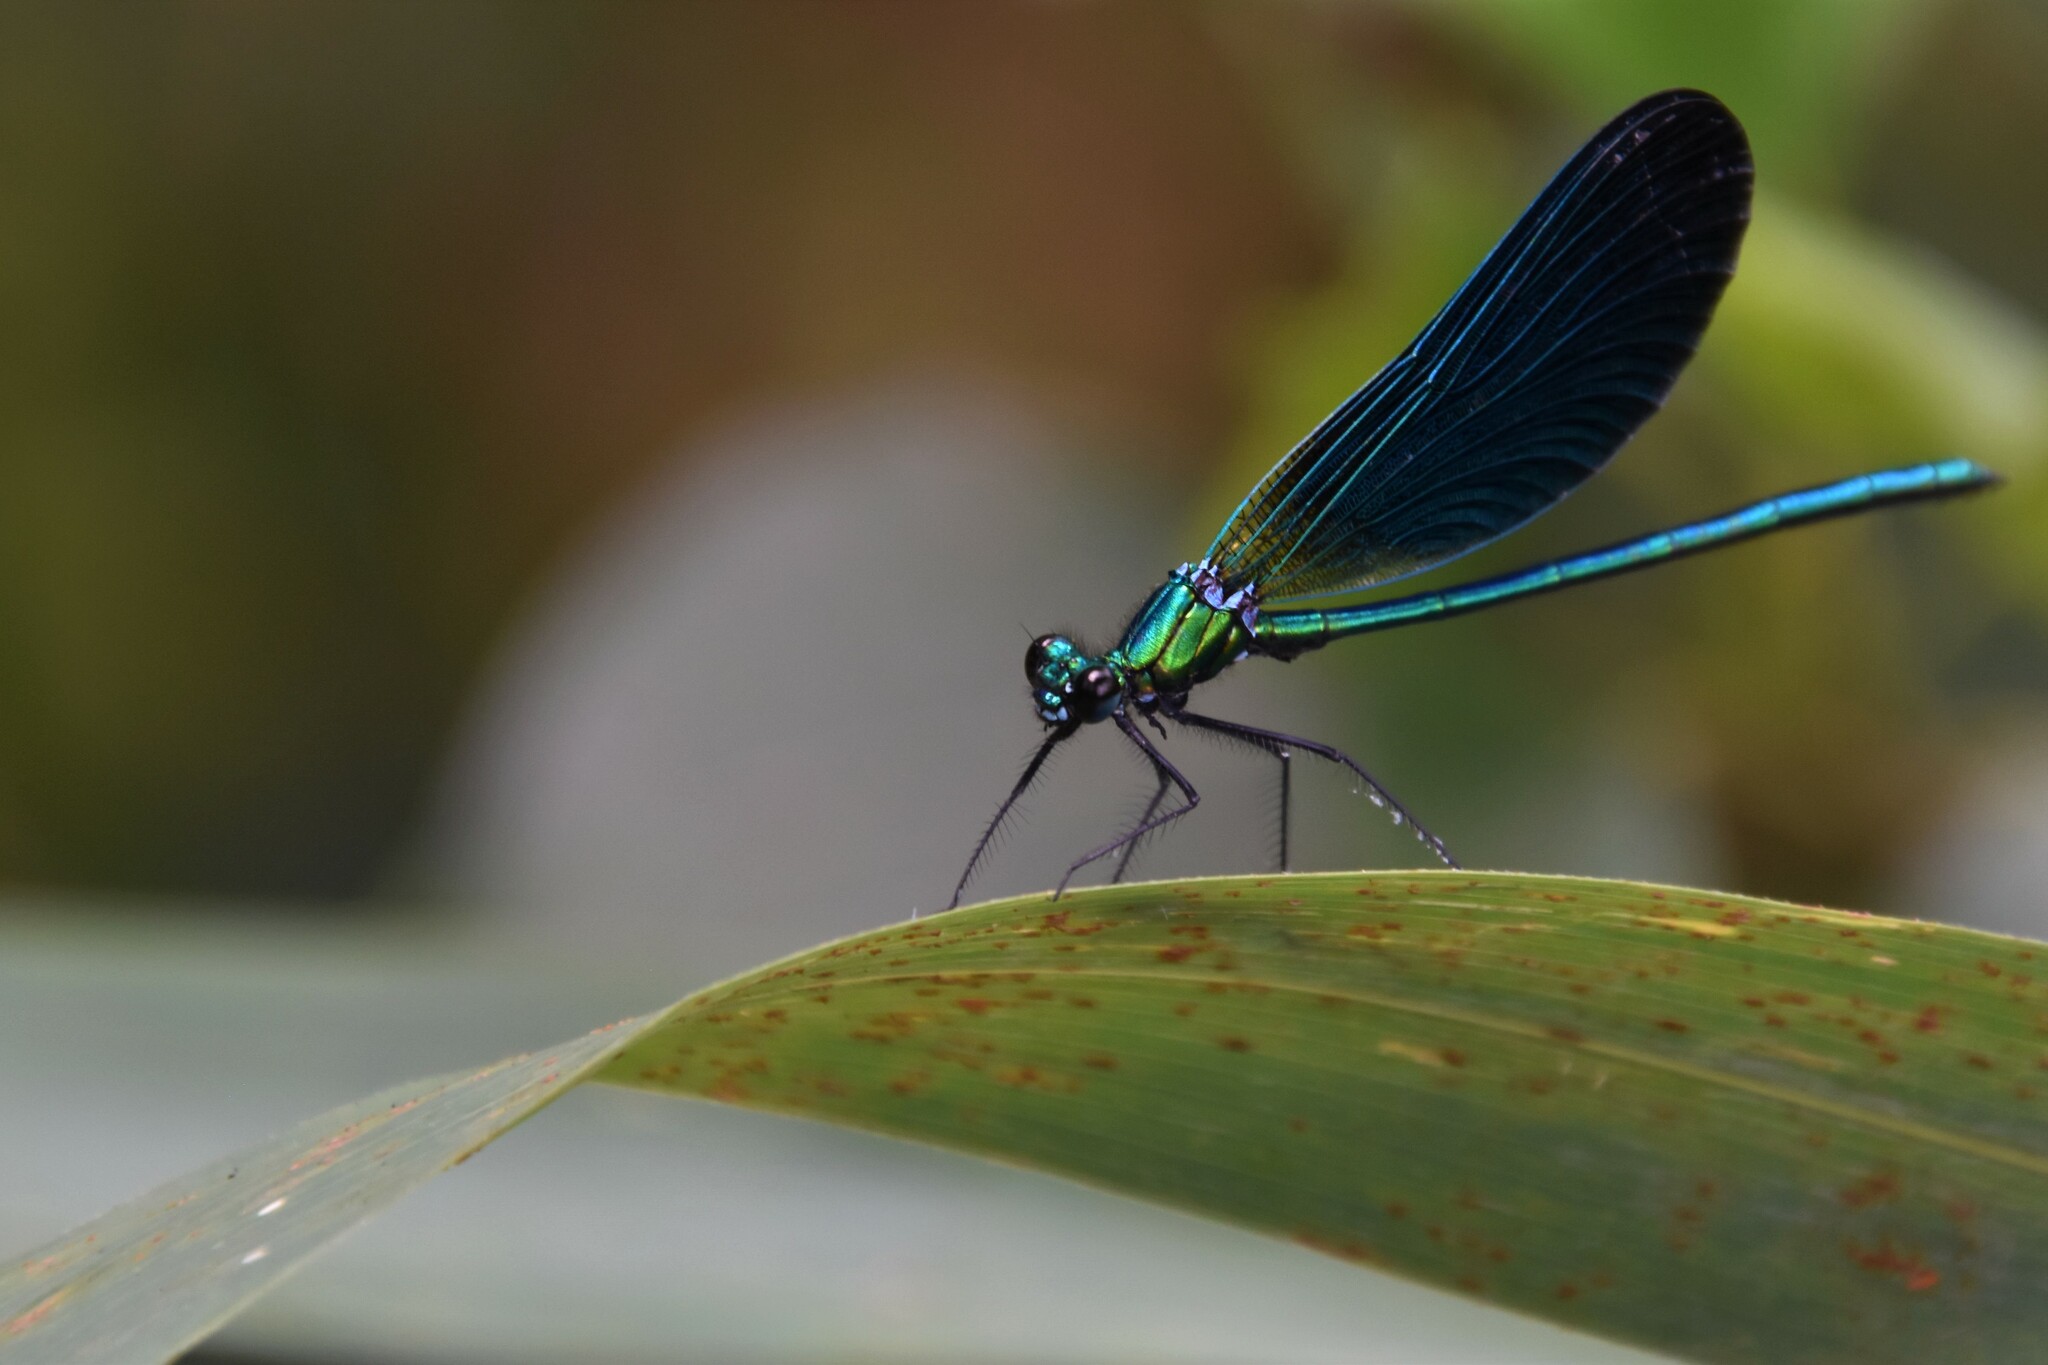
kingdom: Animalia
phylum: Arthropoda
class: Insecta
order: Odonata
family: Calopterygidae
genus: Calopteryx
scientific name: Calopteryx virgo
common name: Beautiful demoiselle
